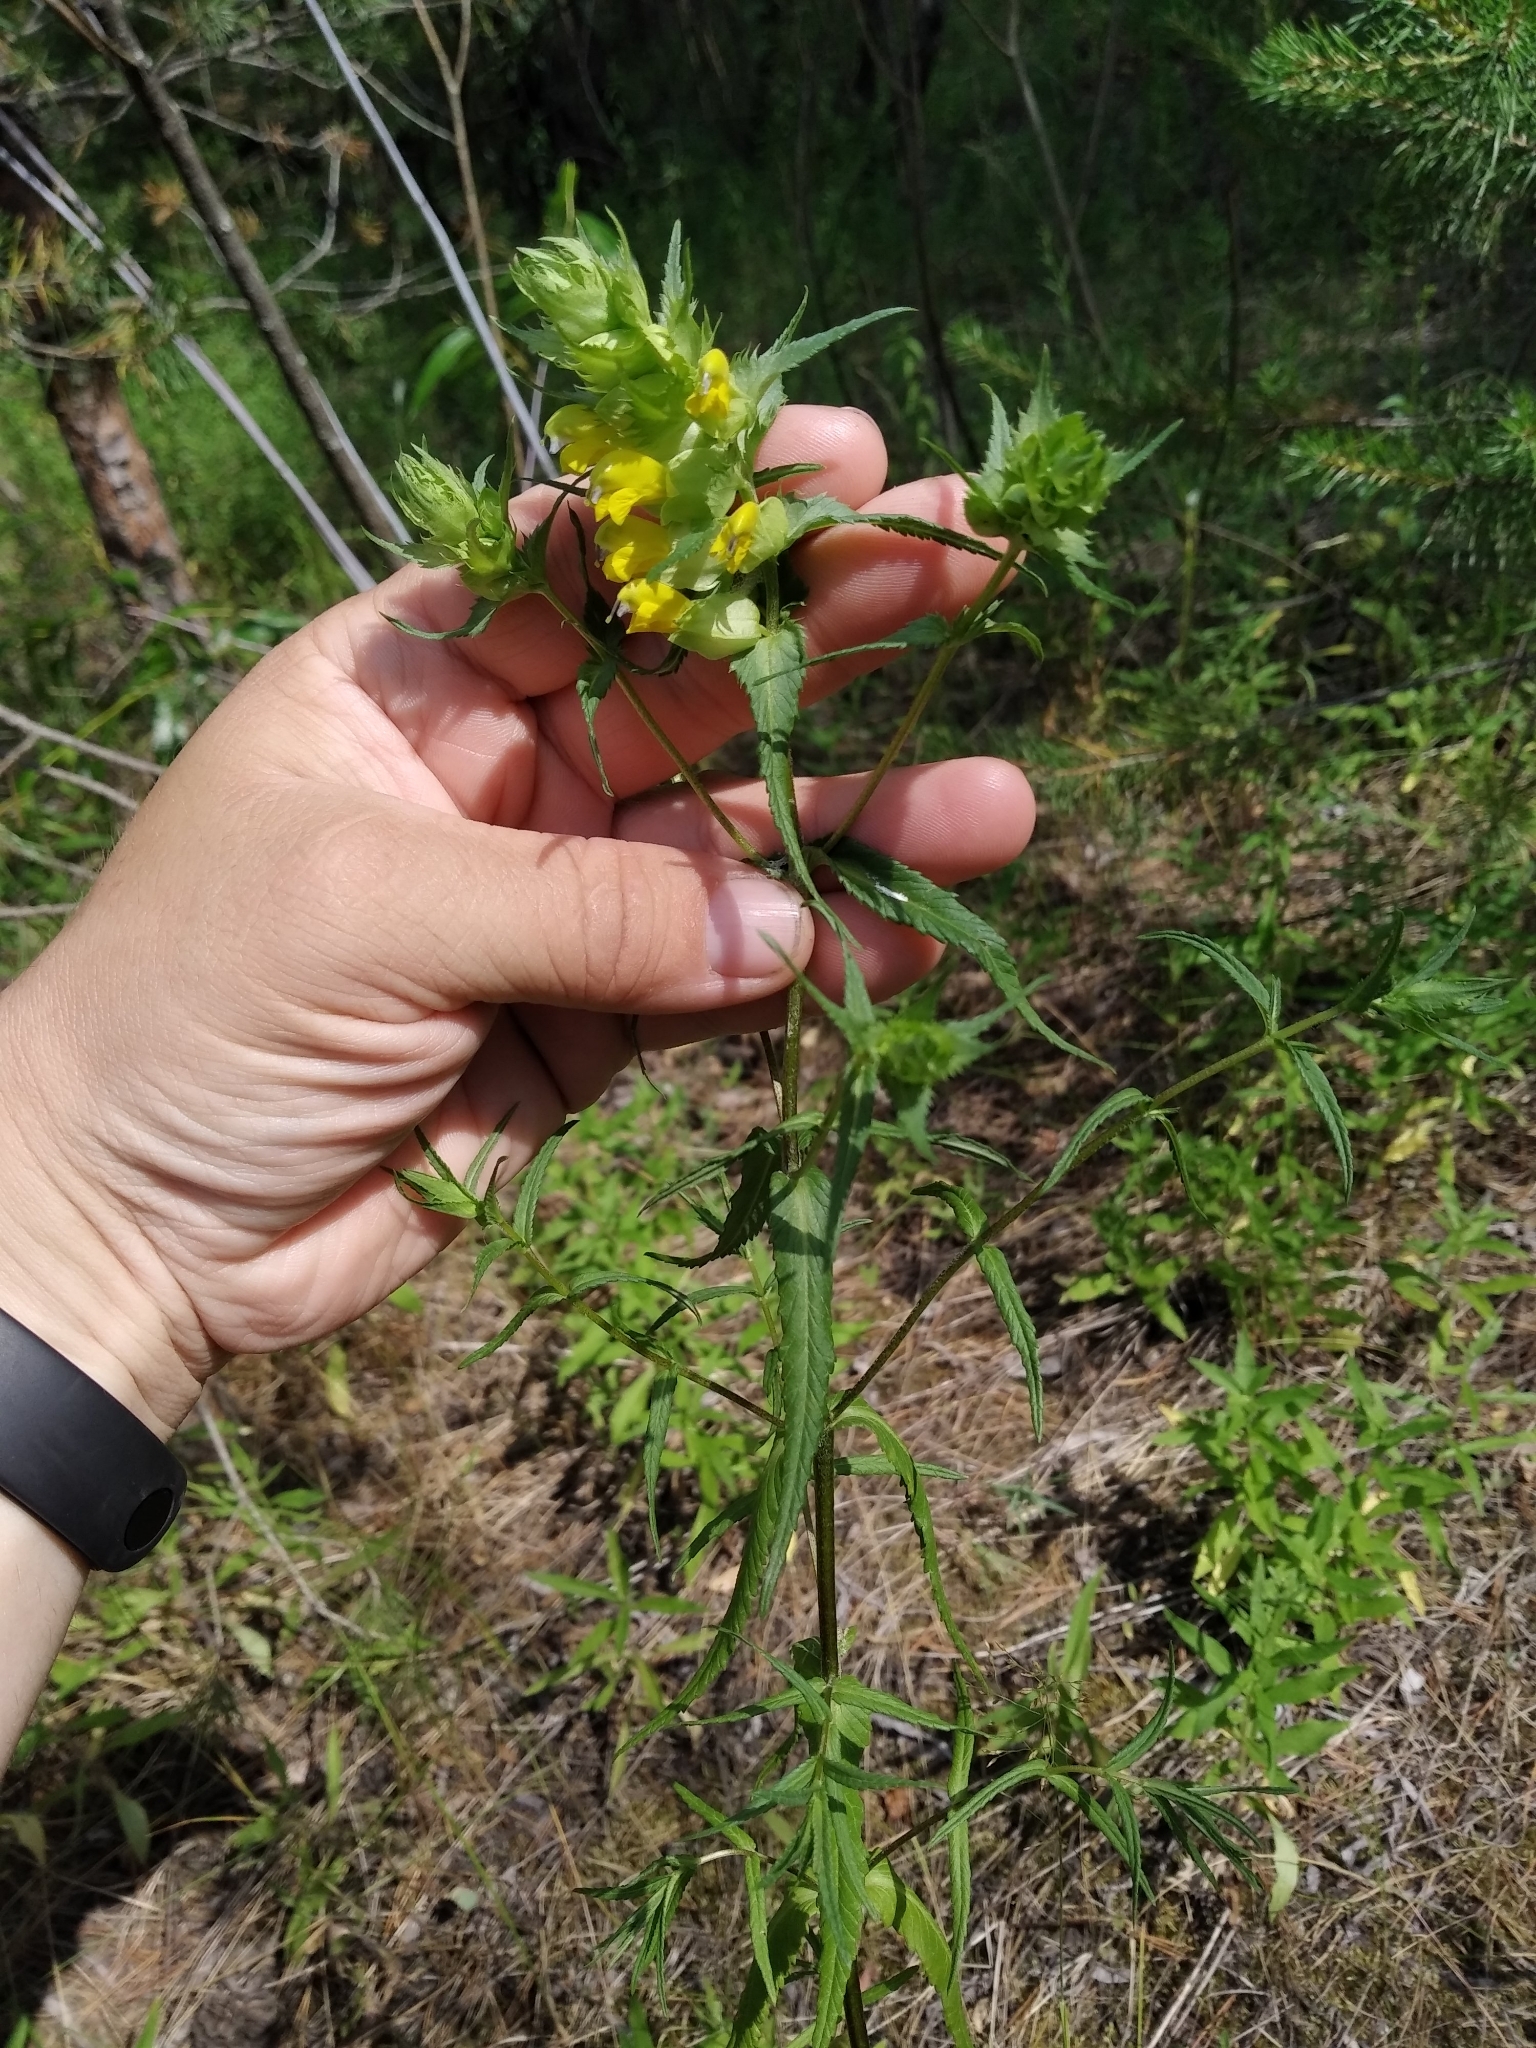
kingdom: Plantae
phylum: Tracheophyta
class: Magnoliopsida
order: Lamiales
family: Orobanchaceae
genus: Rhinanthus
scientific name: Rhinanthus serotinus
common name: Late-flowering yellow rattle
